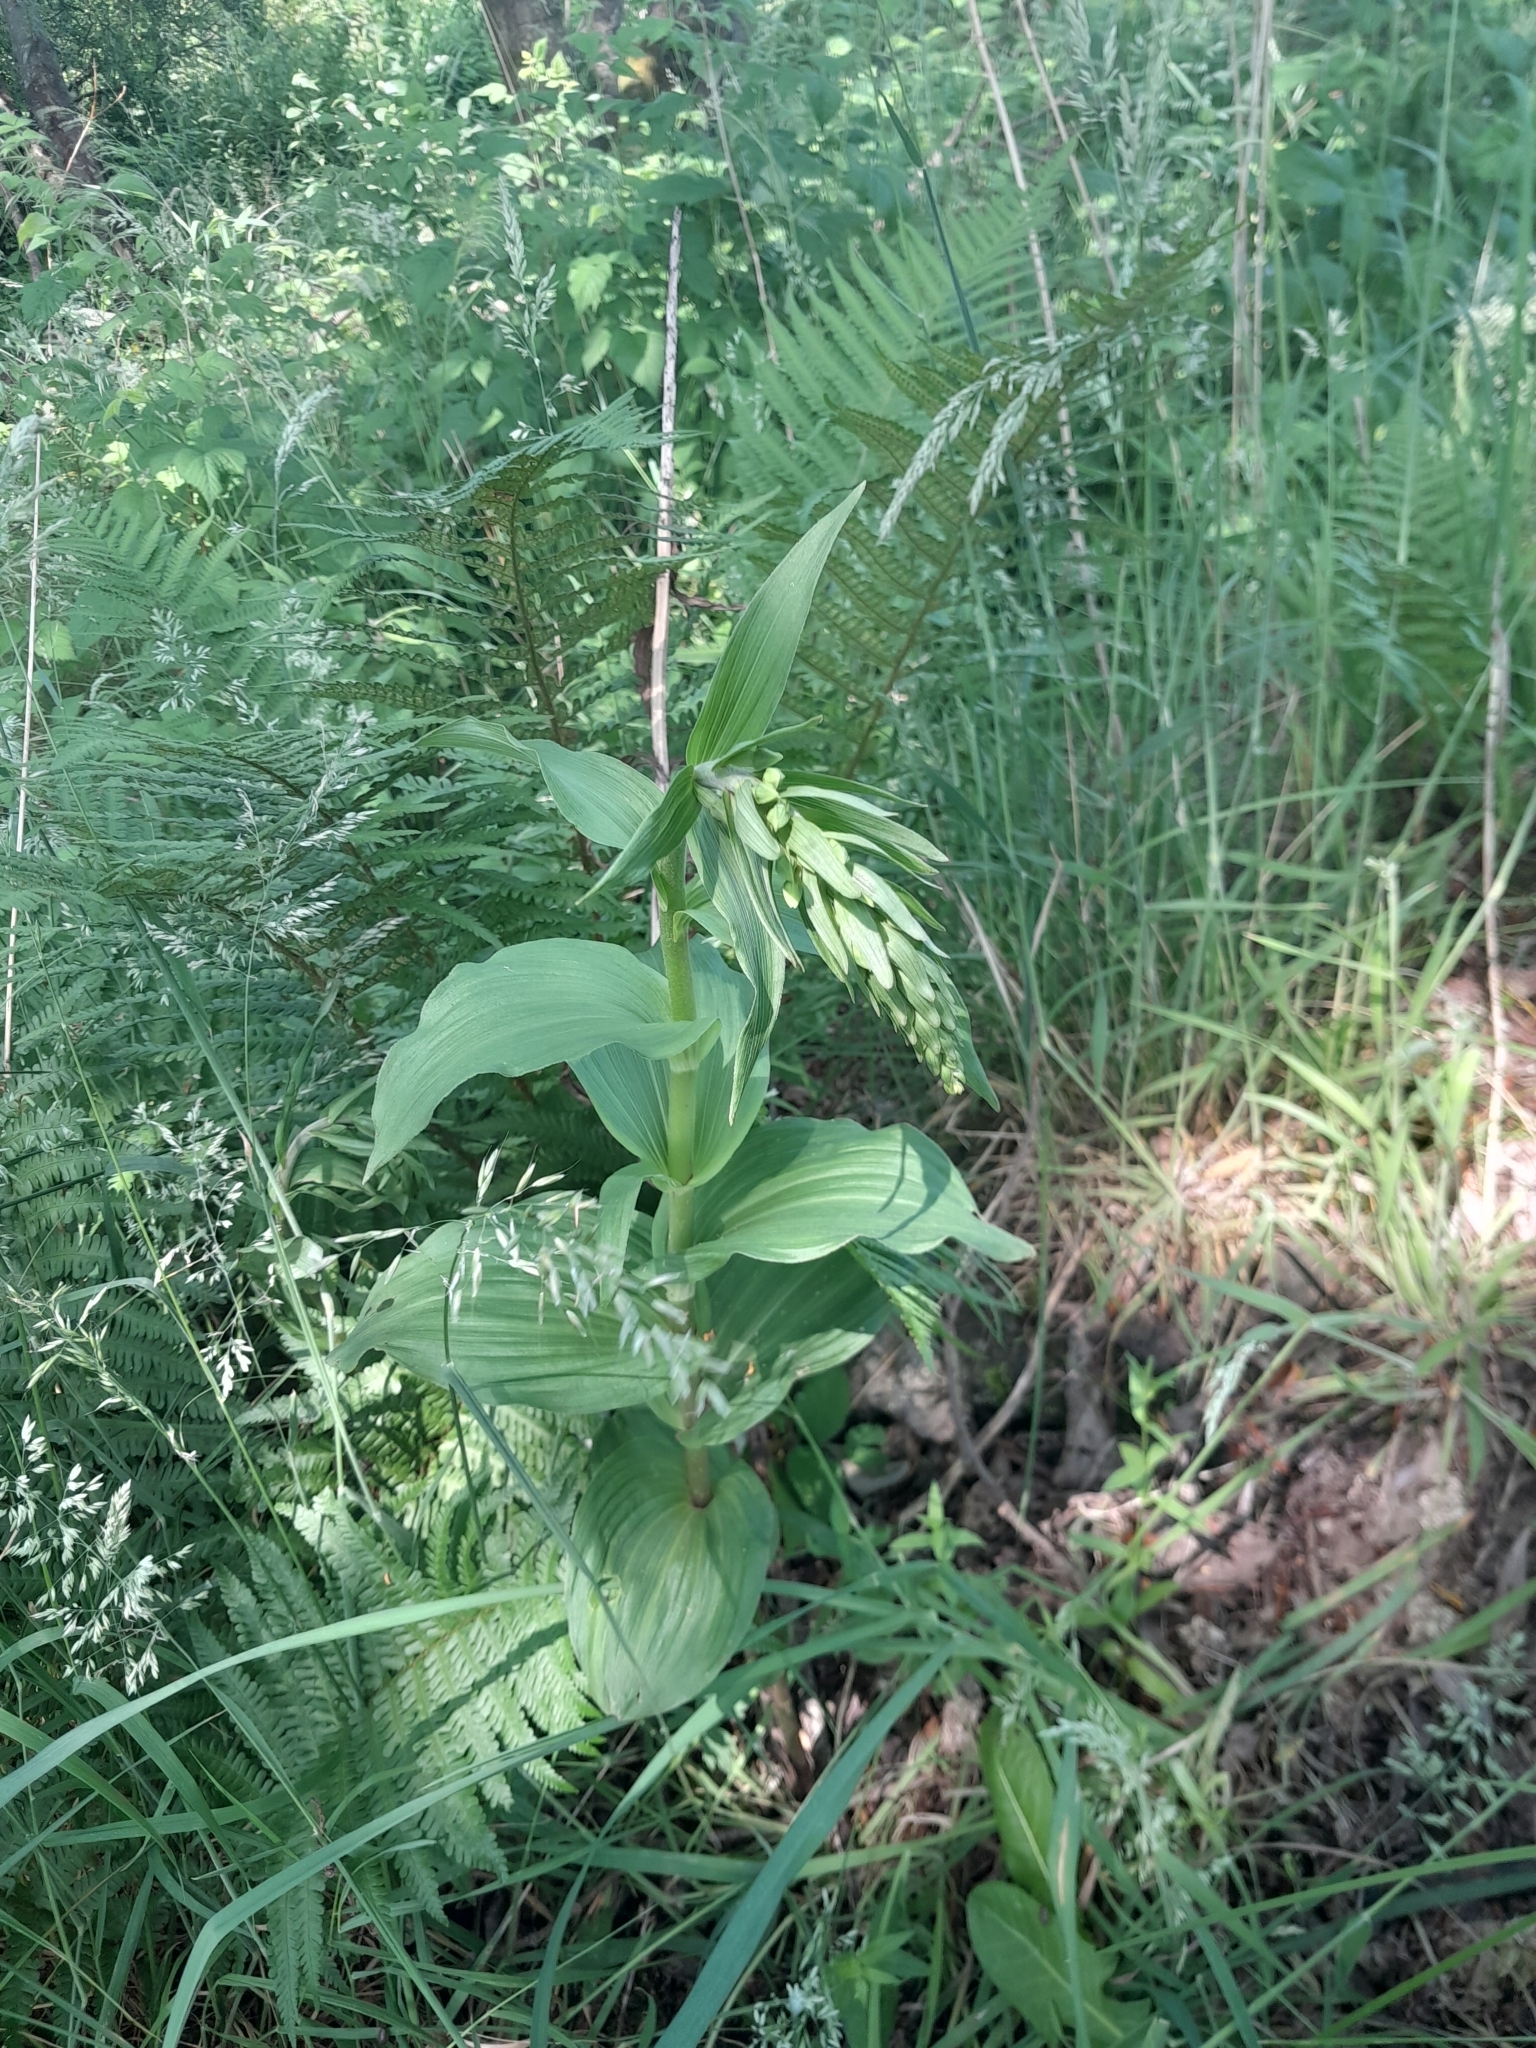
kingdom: Plantae
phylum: Tracheophyta
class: Liliopsida
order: Asparagales
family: Orchidaceae
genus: Epipactis
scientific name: Epipactis helleborine
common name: Broad-leaved helleborine
